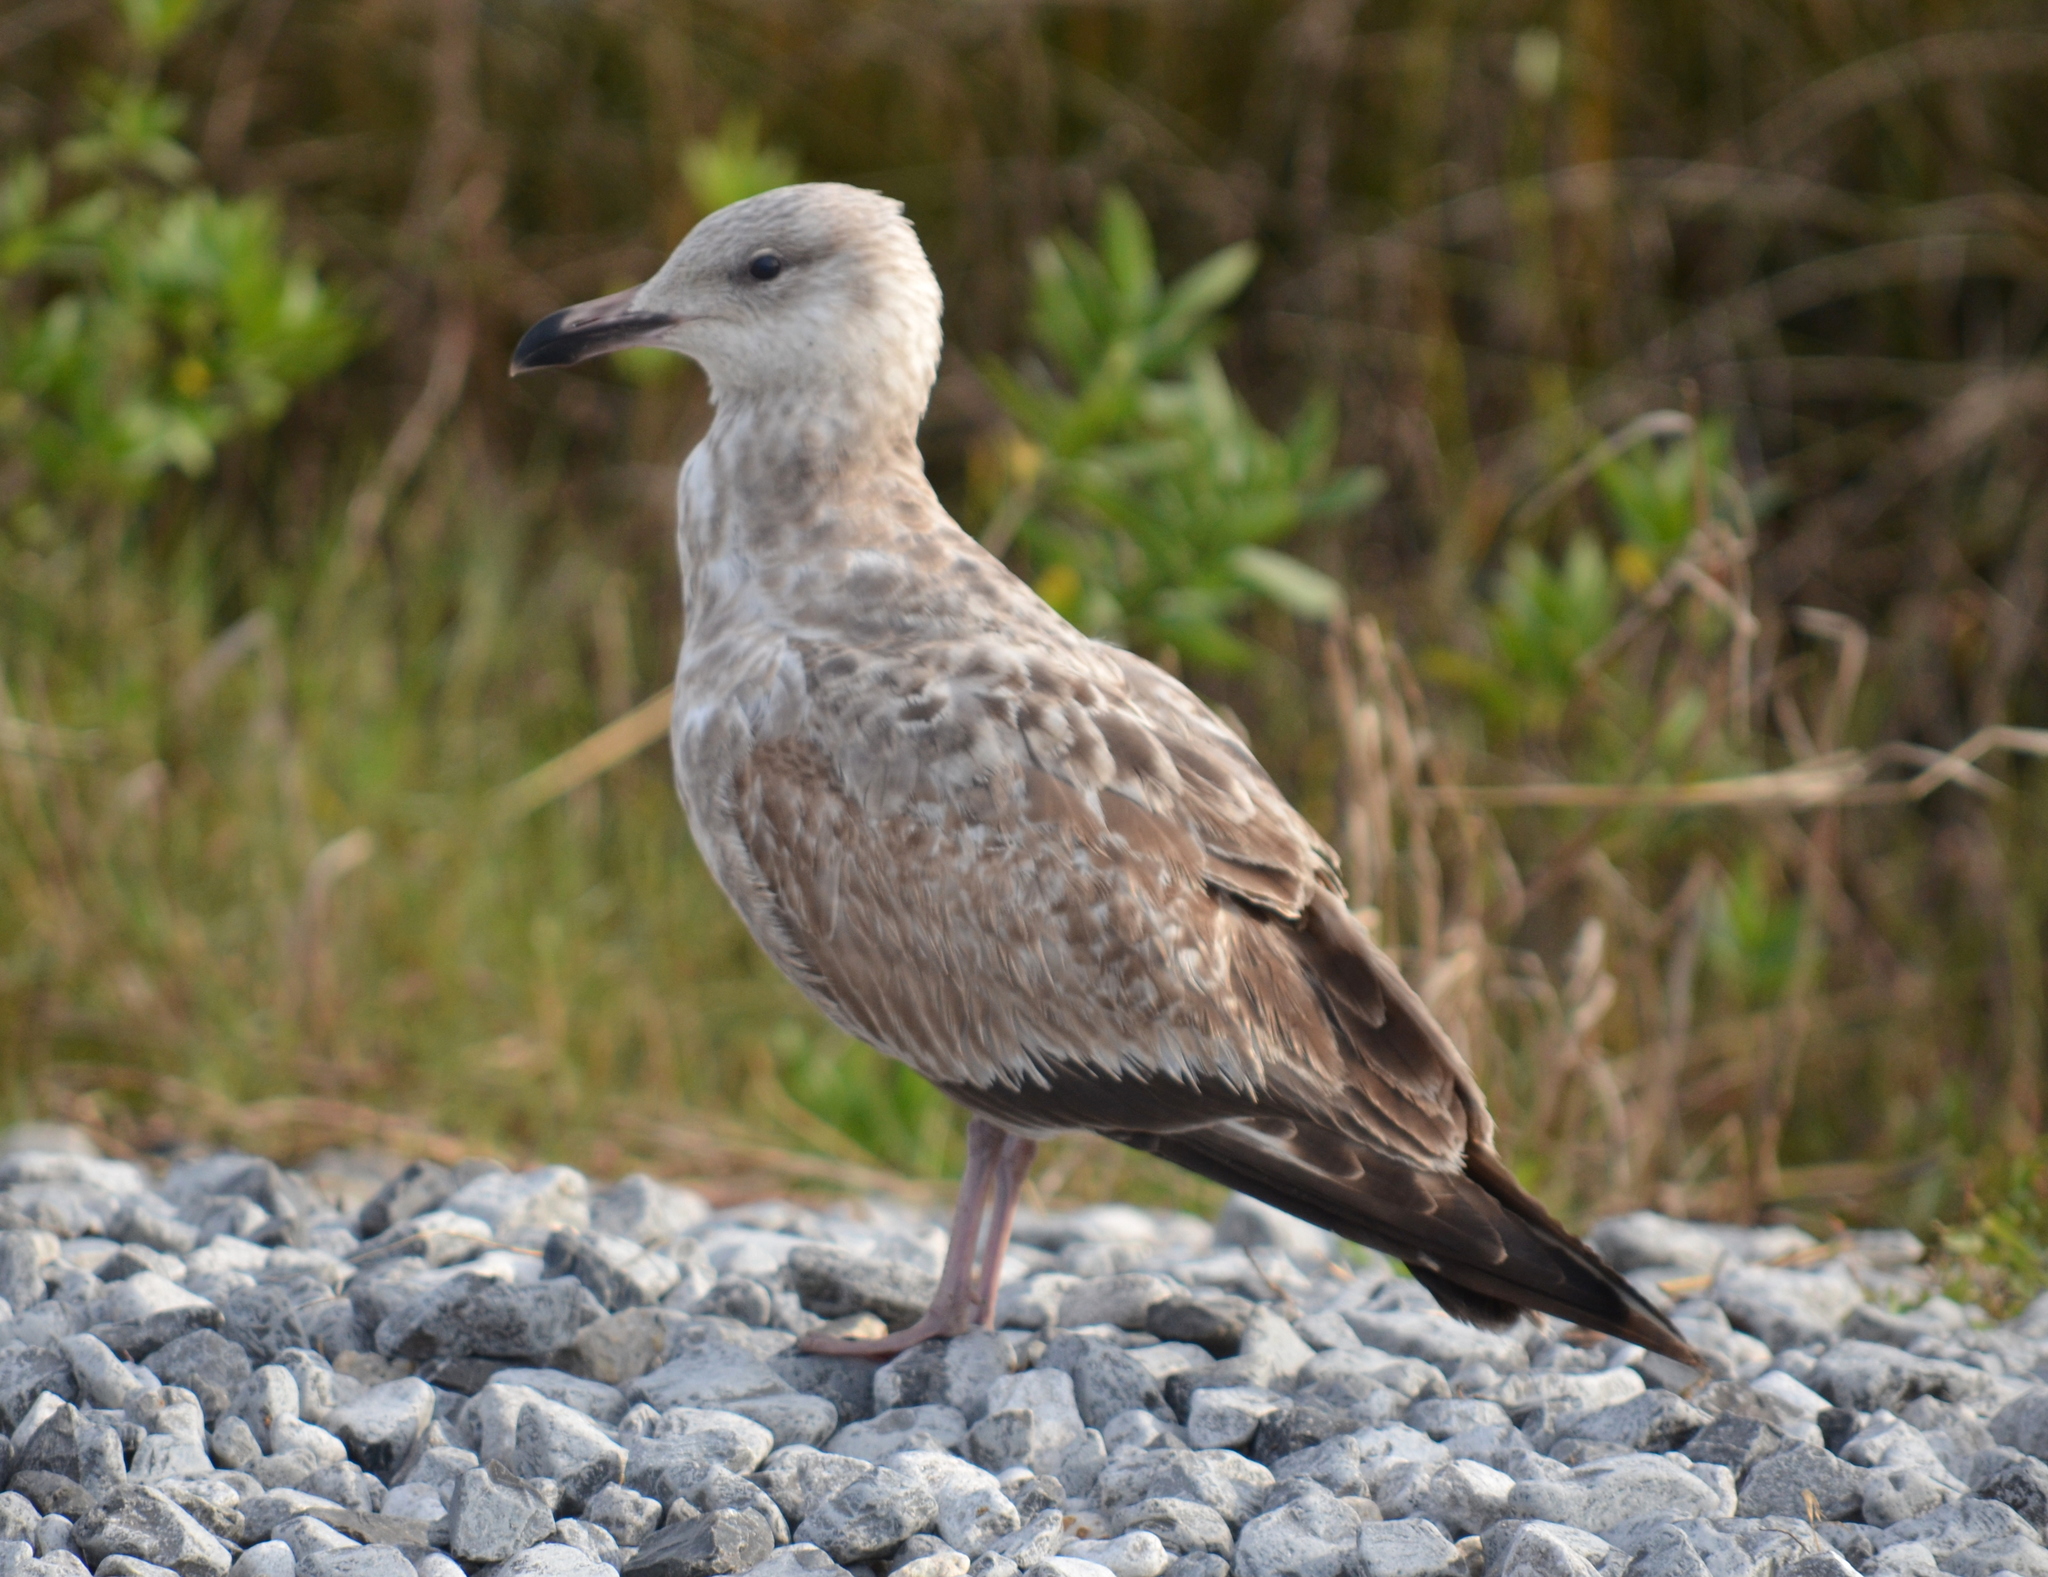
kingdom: Animalia
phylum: Chordata
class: Aves
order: Charadriiformes
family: Laridae
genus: Larus
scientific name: Larus argentatus
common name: Herring gull
